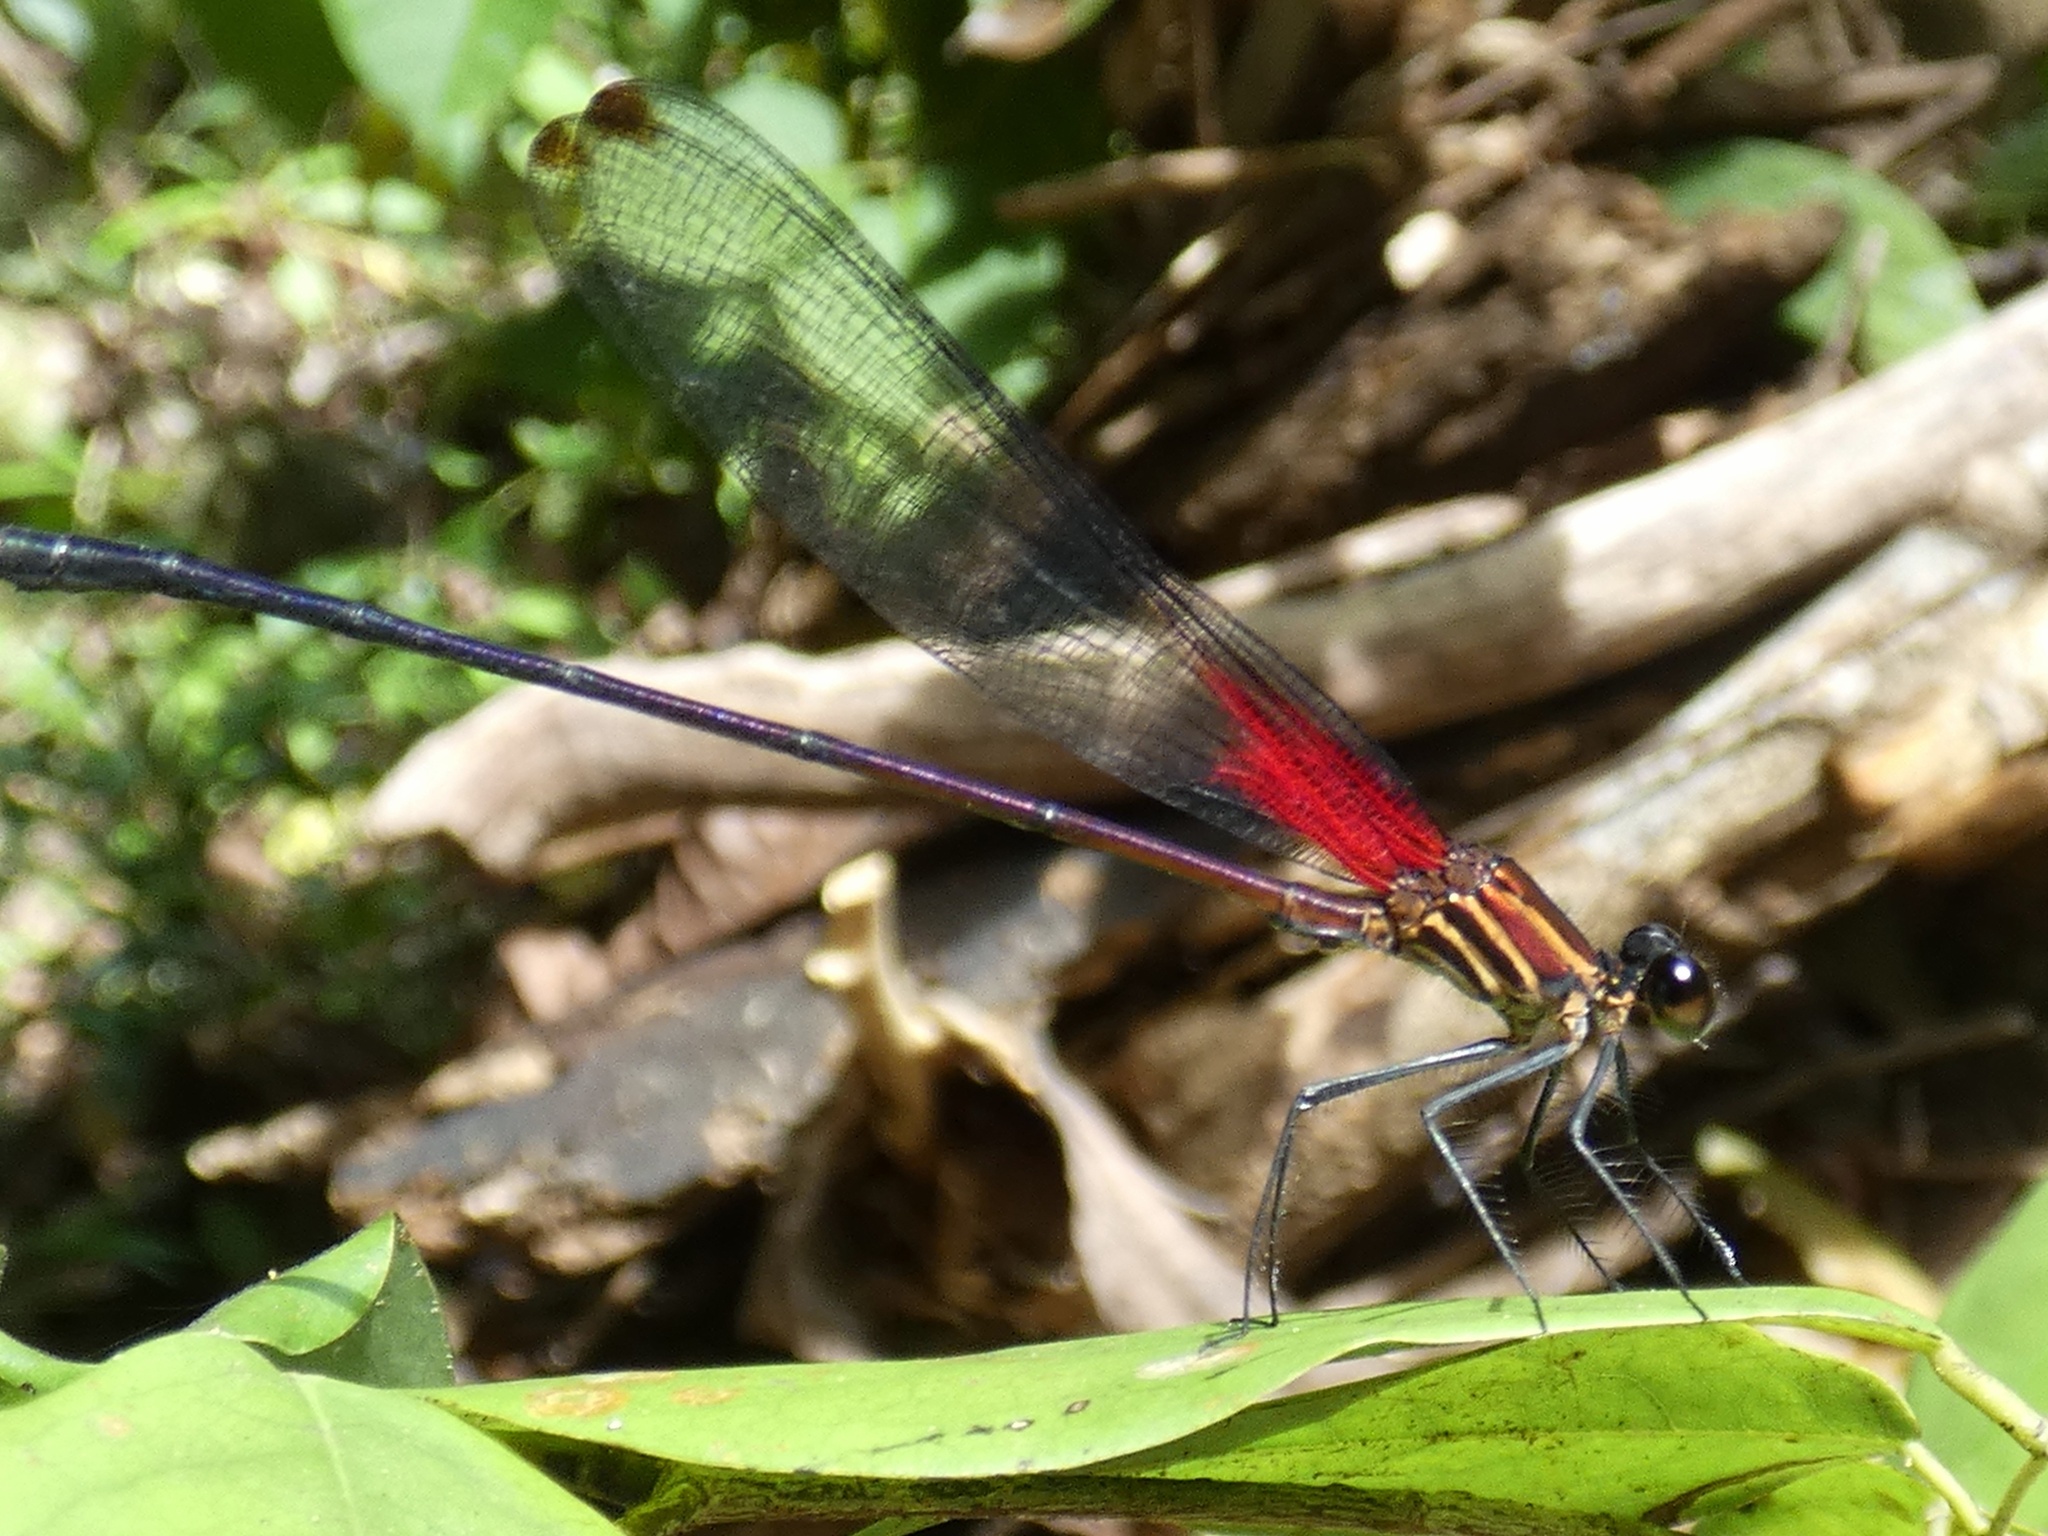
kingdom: Animalia
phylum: Arthropoda
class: Insecta
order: Odonata
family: Calopterygidae
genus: Hetaerina
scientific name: Hetaerina fuscoguttata
